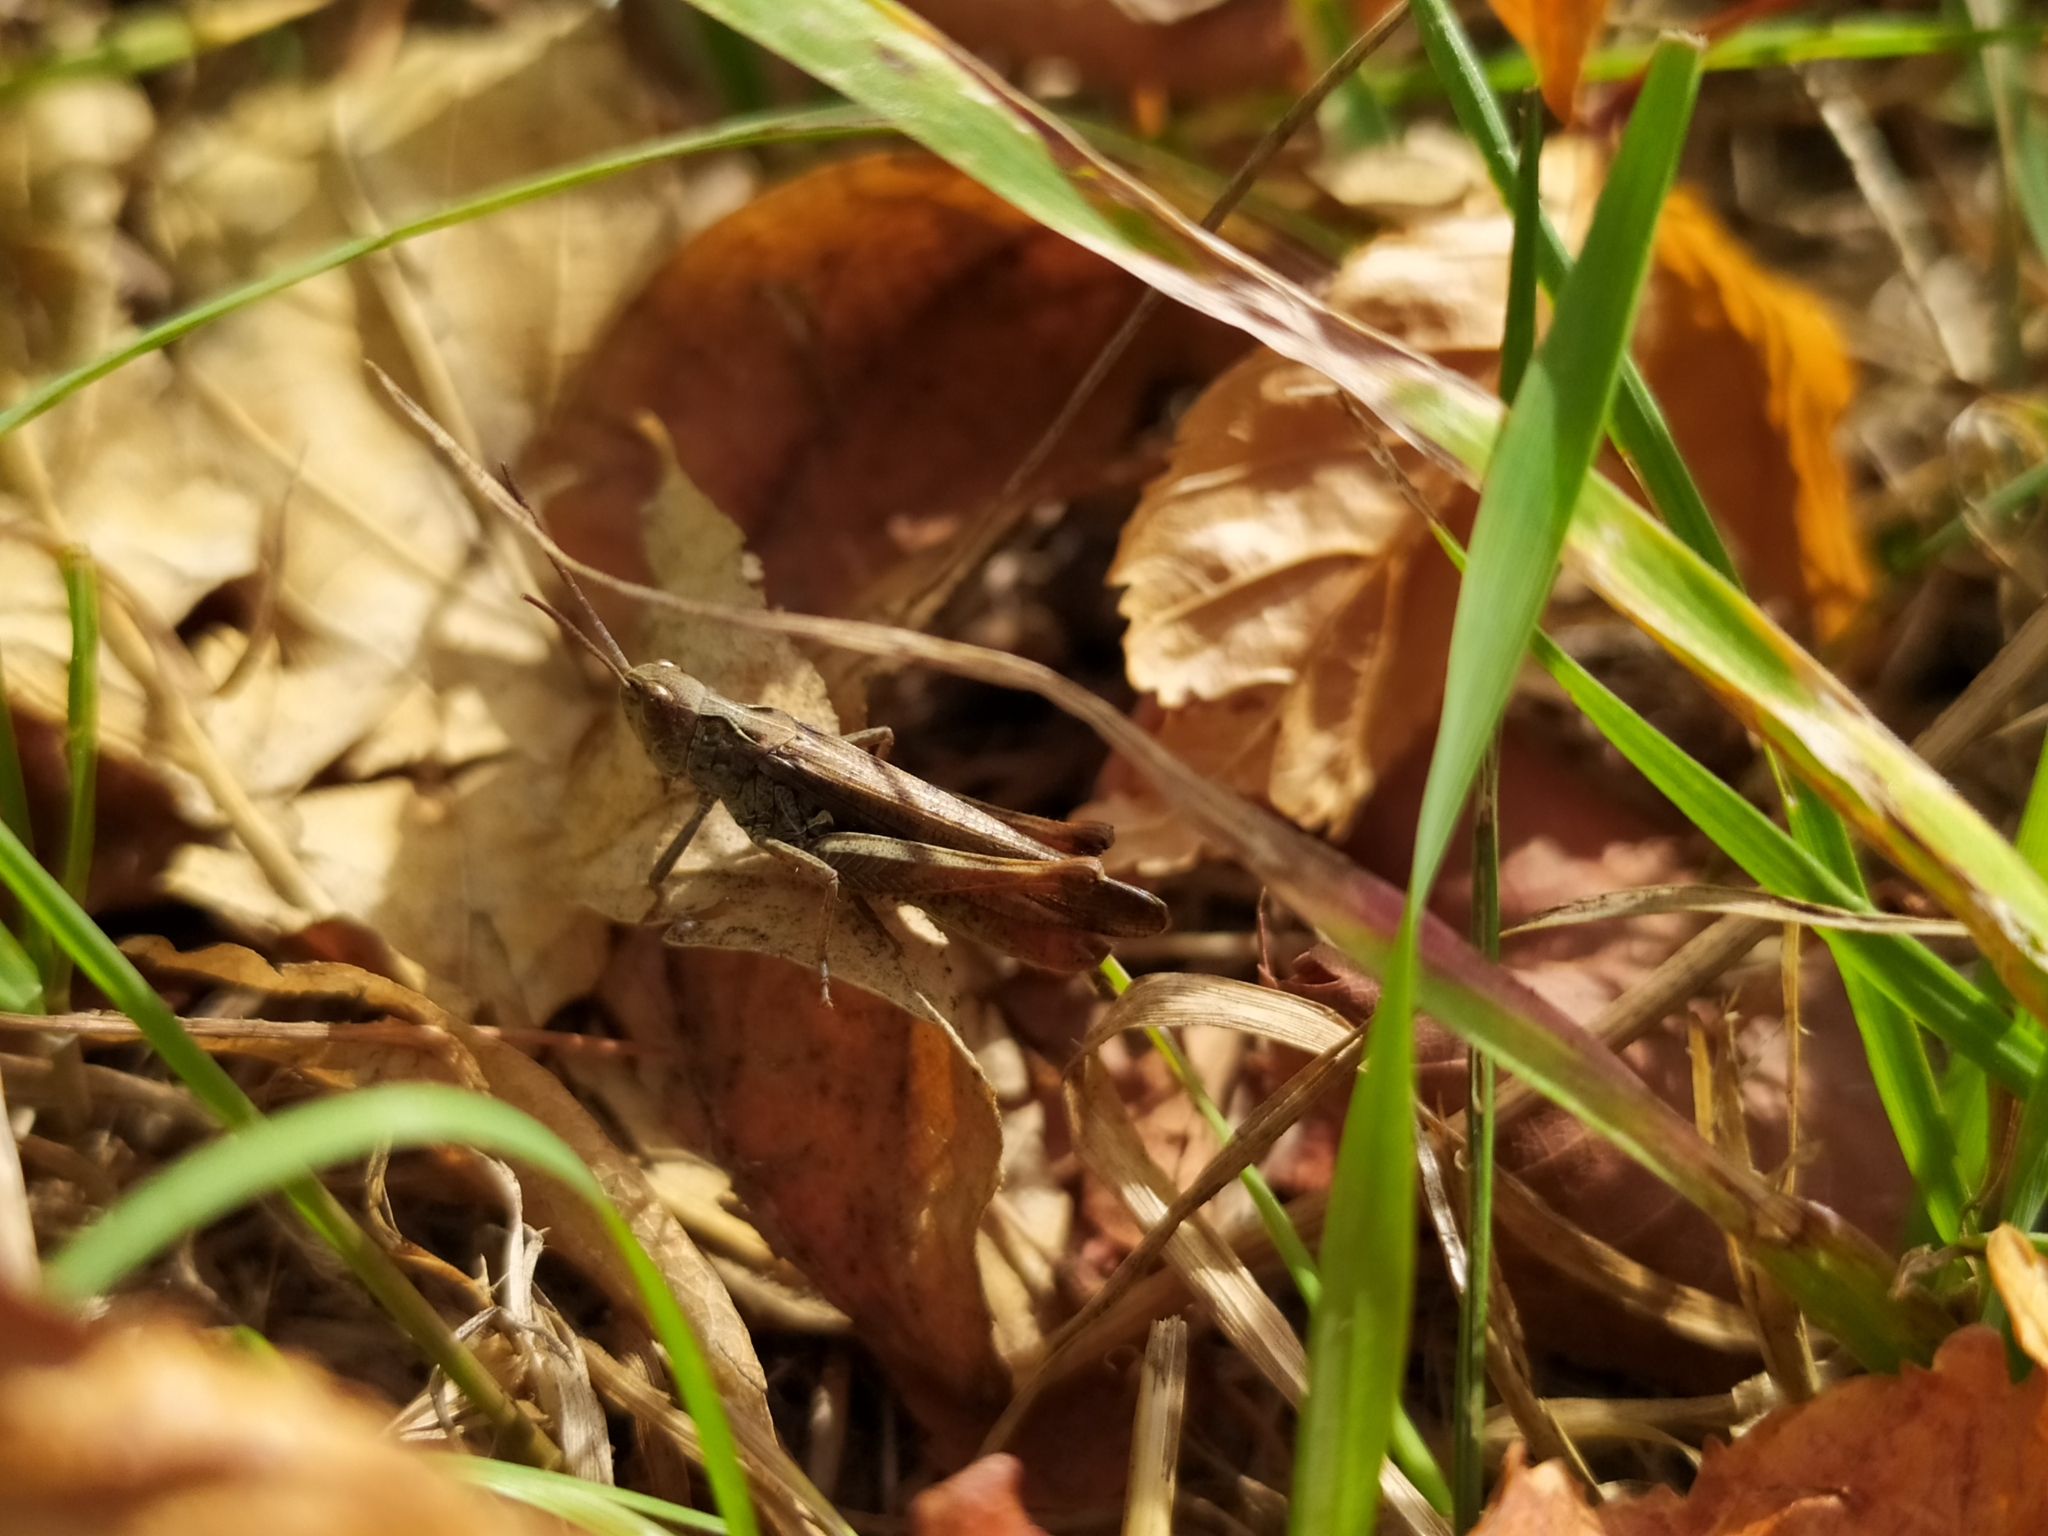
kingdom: Animalia
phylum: Arthropoda
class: Insecta
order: Orthoptera
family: Acrididae
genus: Chorthippus
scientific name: Chorthippus biguttulus
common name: Bow-winged grasshopper
